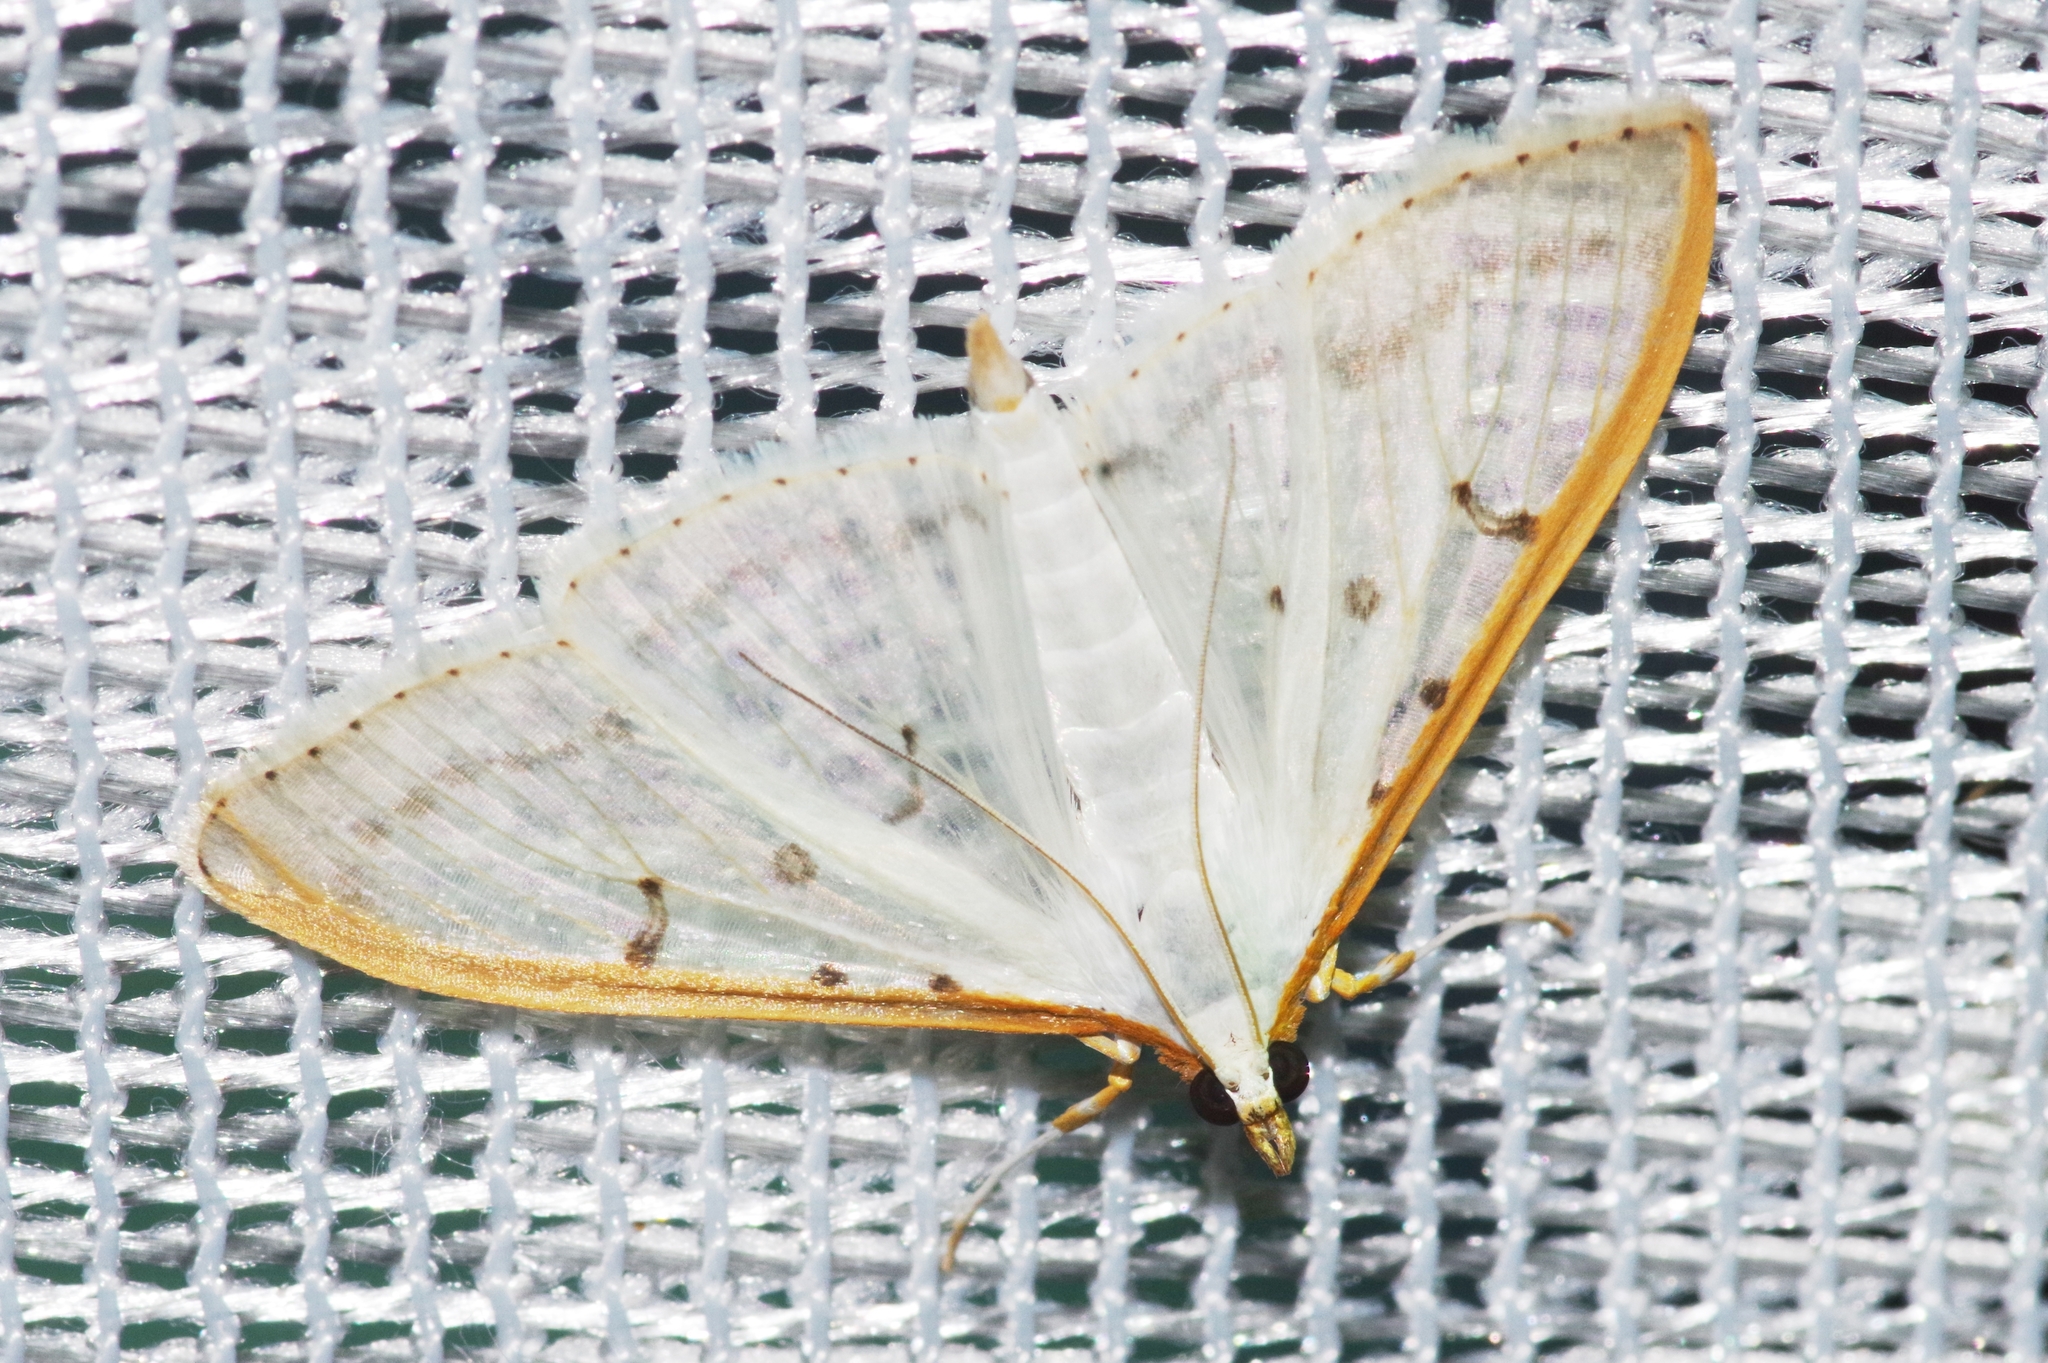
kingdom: Animalia
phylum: Arthropoda
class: Insecta
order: Lepidoptera
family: Crambidae
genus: Palpita
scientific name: Palpita nigropunctalis
